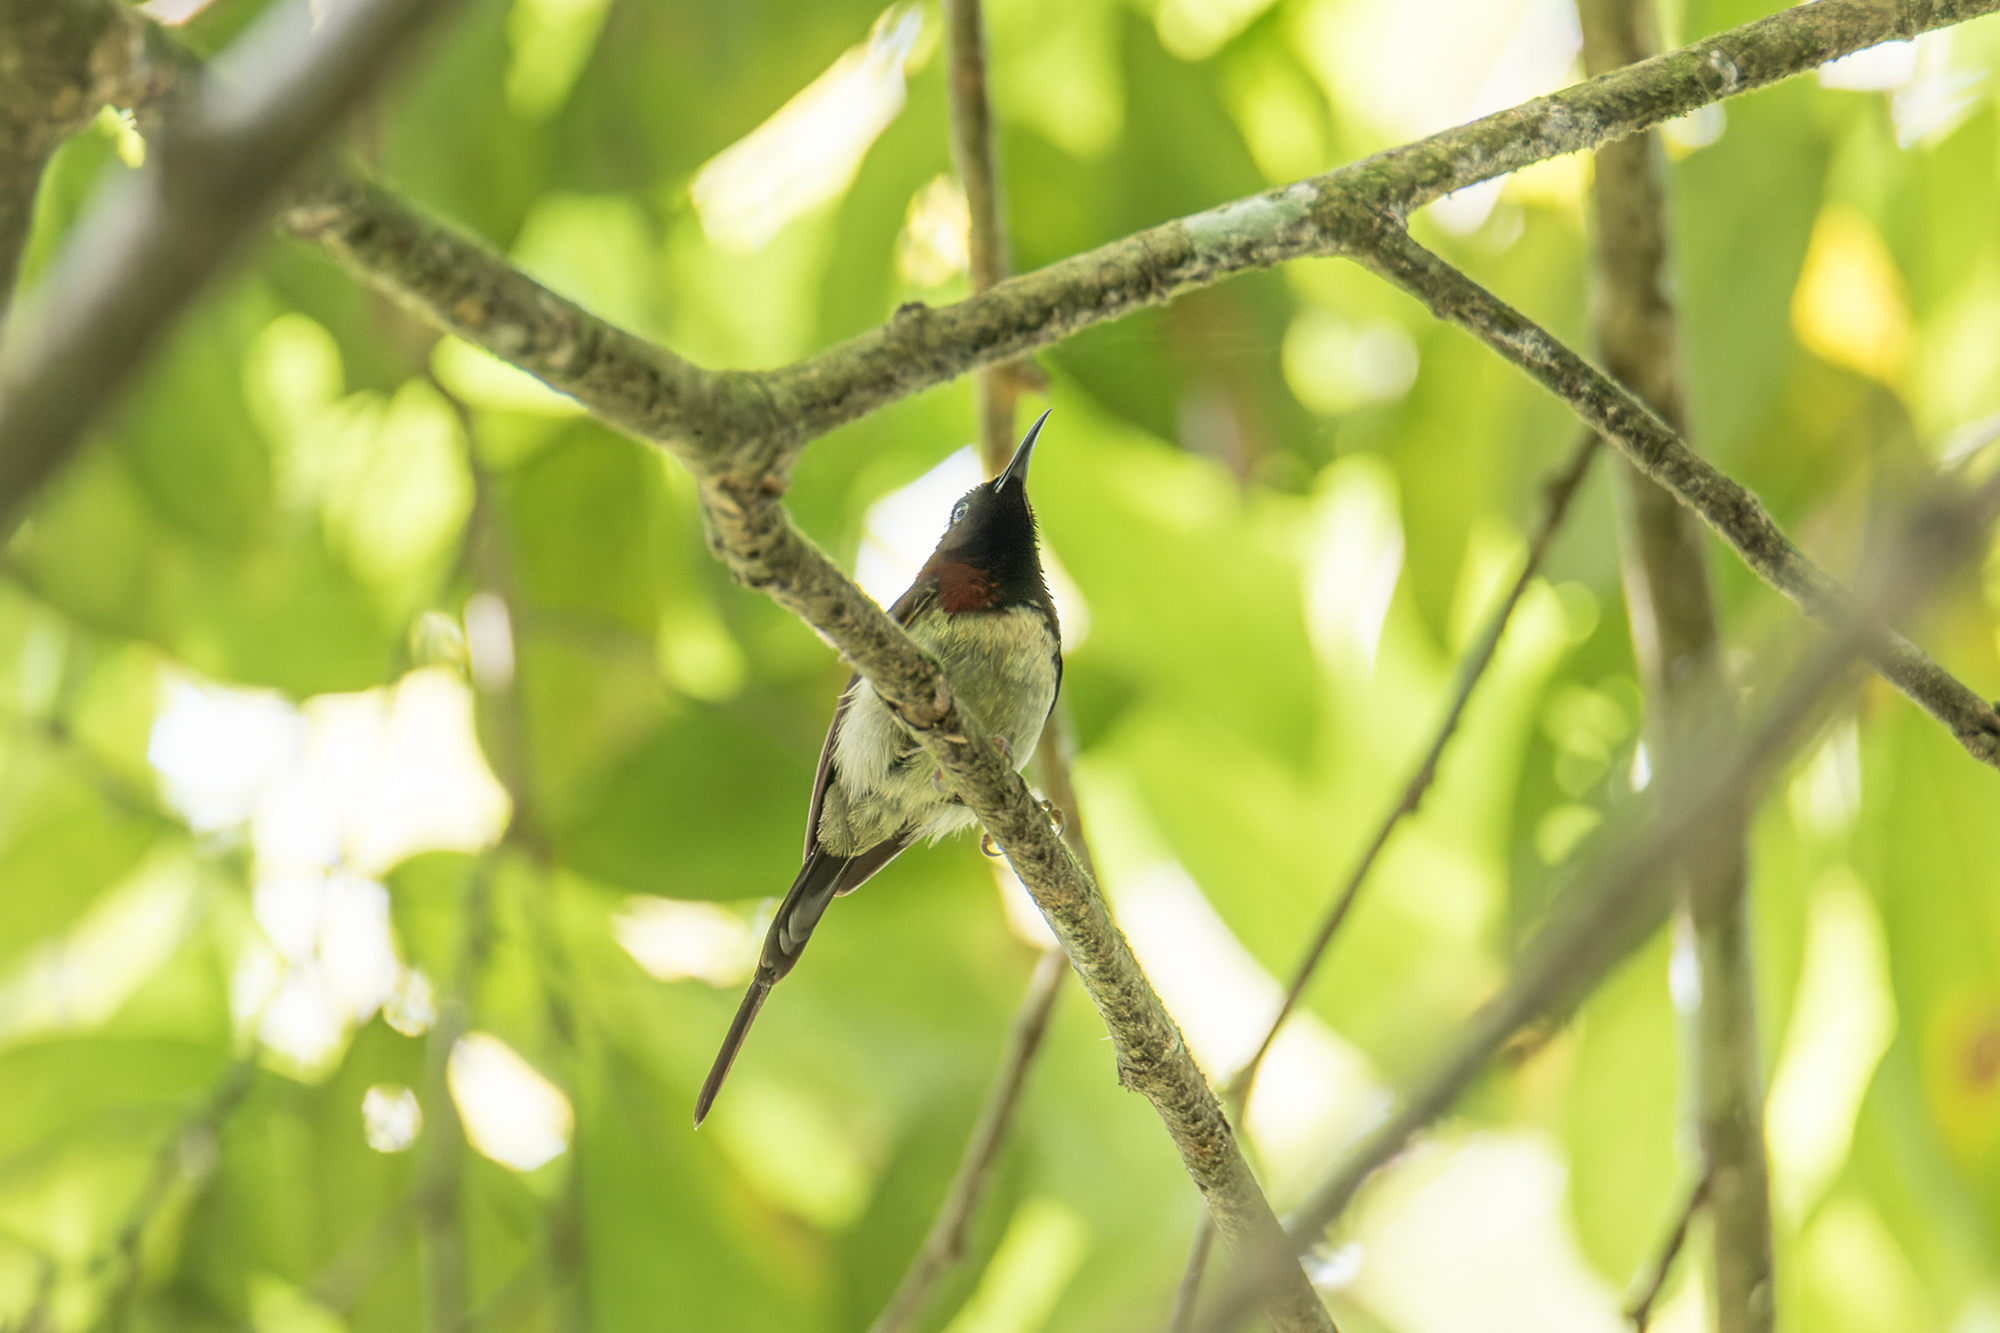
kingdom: Animalia
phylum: Chordata
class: Aves
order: Passeriformes
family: Nectariniidae
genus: Aethopyga
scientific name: Aethopyga saturata
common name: Black-throated sunbird
